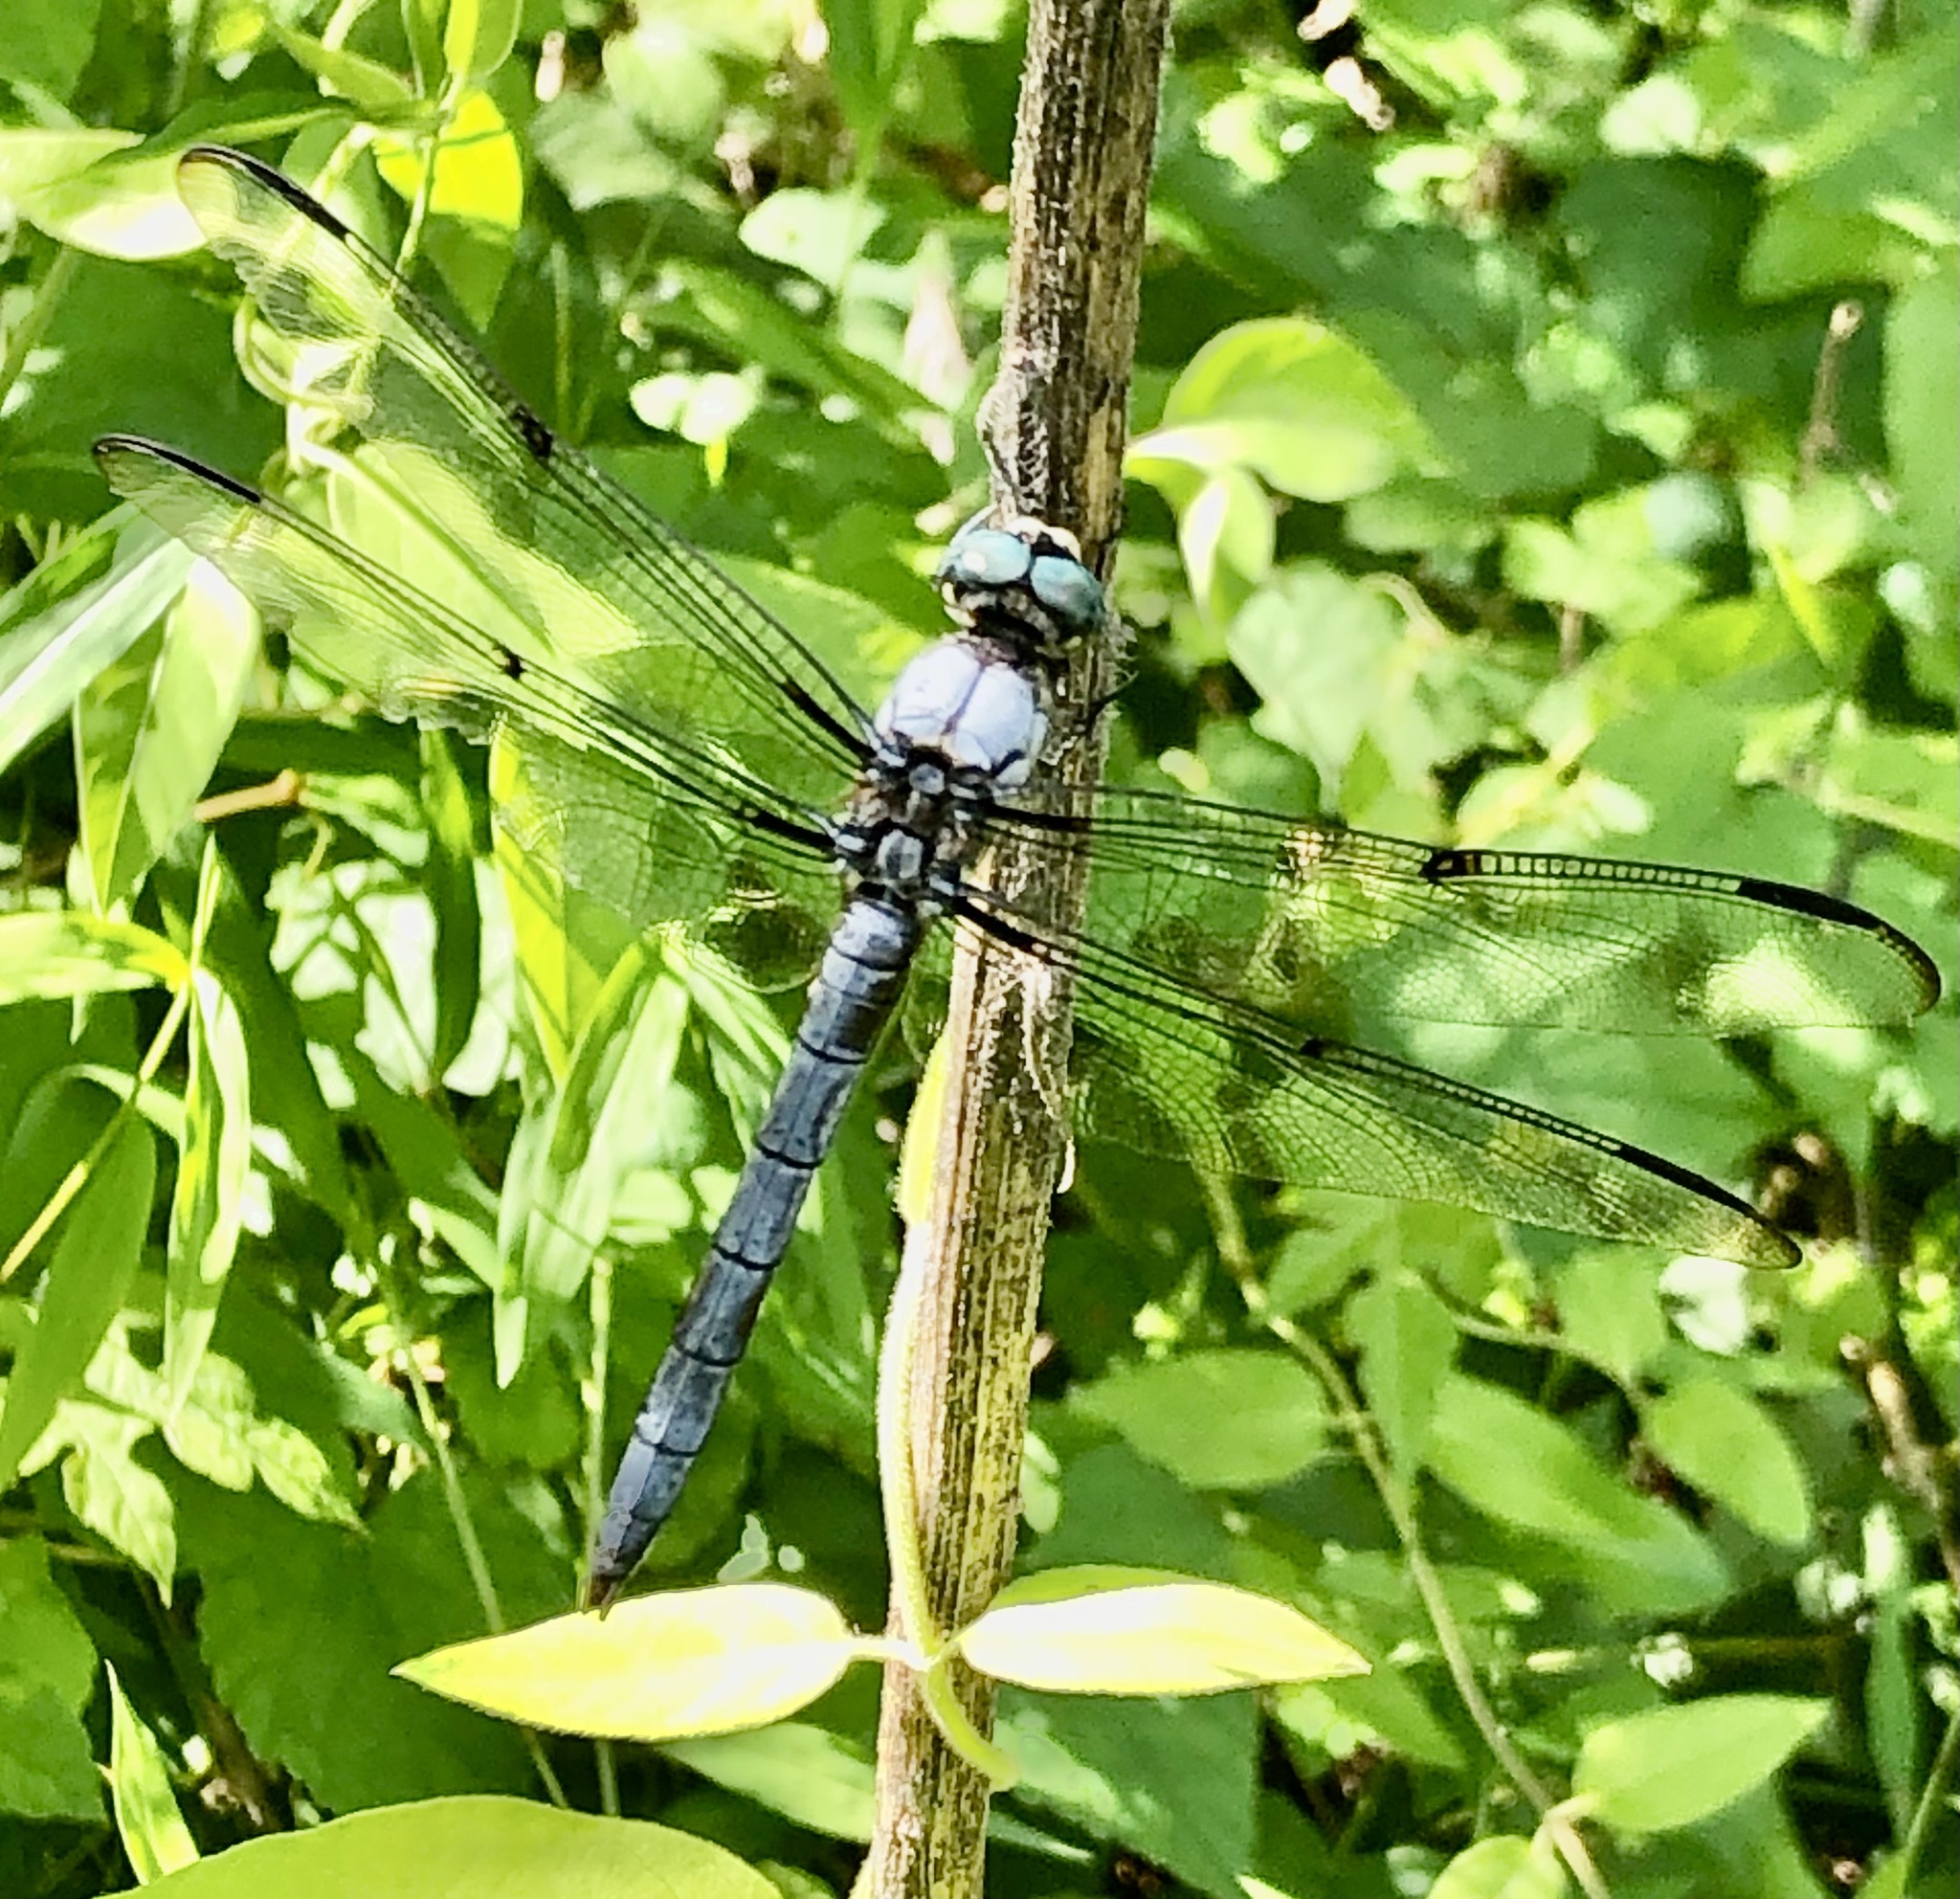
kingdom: Animalia
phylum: Arthropoda
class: Insecta
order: Odonata
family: Libellulidae
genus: Libellula
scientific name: Libellula vibrans
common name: Great blue skimmer
